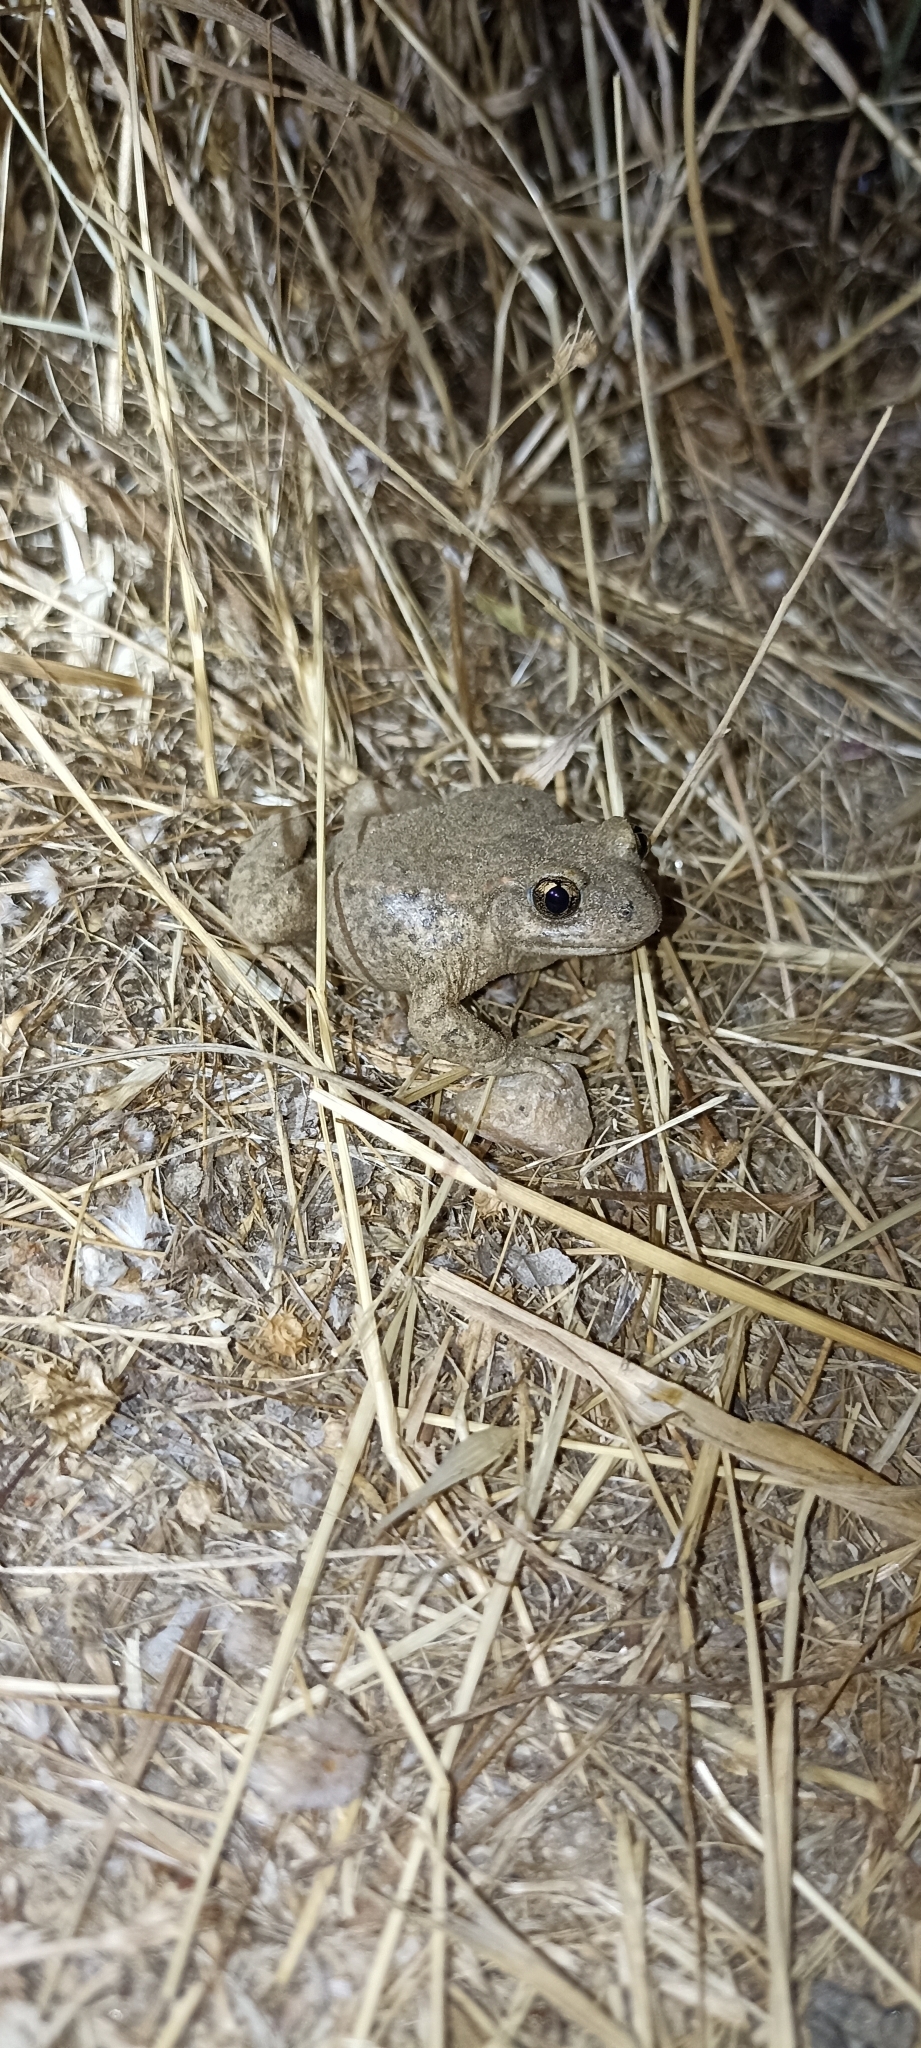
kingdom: Animalia
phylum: Chordata
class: Amphibia
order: Anura
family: Alytidae
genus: Alytes
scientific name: Alytes obstetricans
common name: Midwife toad
